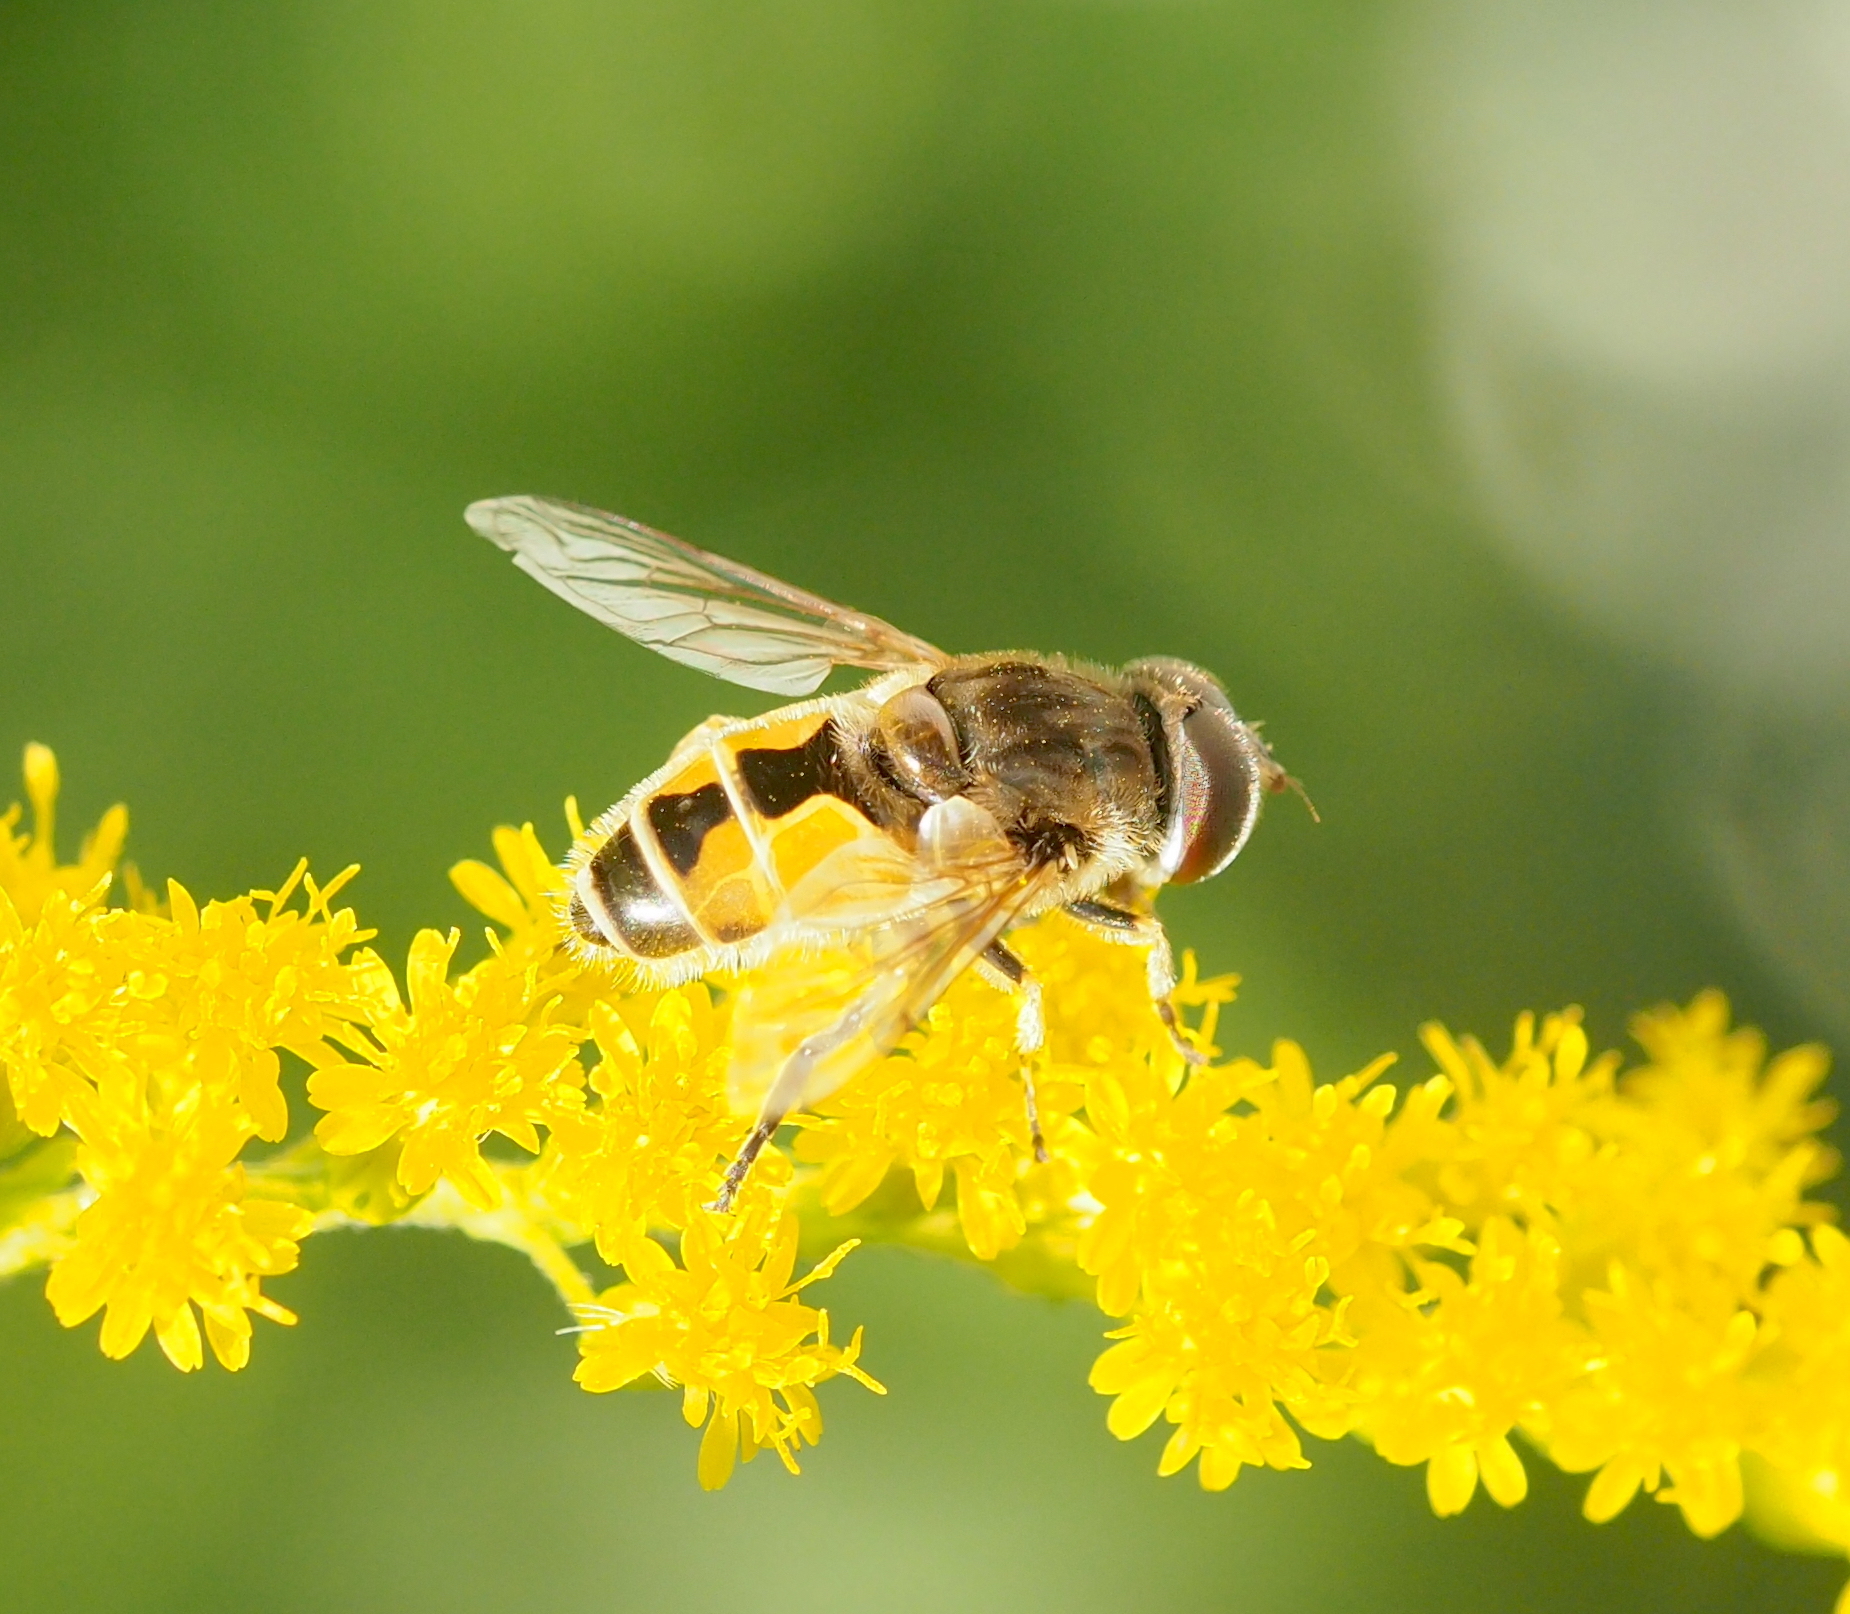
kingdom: Animalia
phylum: Arthropoda
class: Insecta
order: Diptera
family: Syrphidae
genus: Eristalis
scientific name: Eristalis arbustorum
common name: Hover fly
